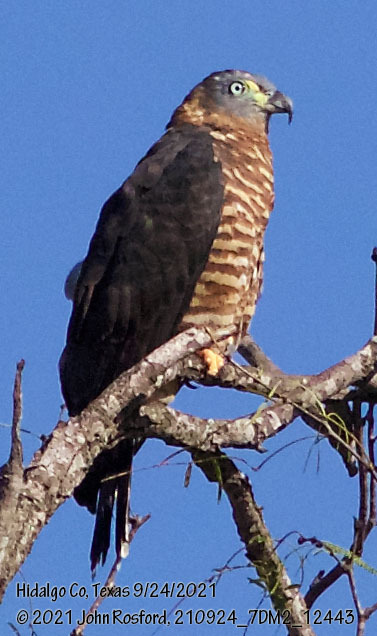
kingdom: Animalia
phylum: Chordata
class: Aves
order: Accipitriformes
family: Accipitridae
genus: Chondrohierax
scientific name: Chondrohierax uncinatus
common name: Hook-billed kite
